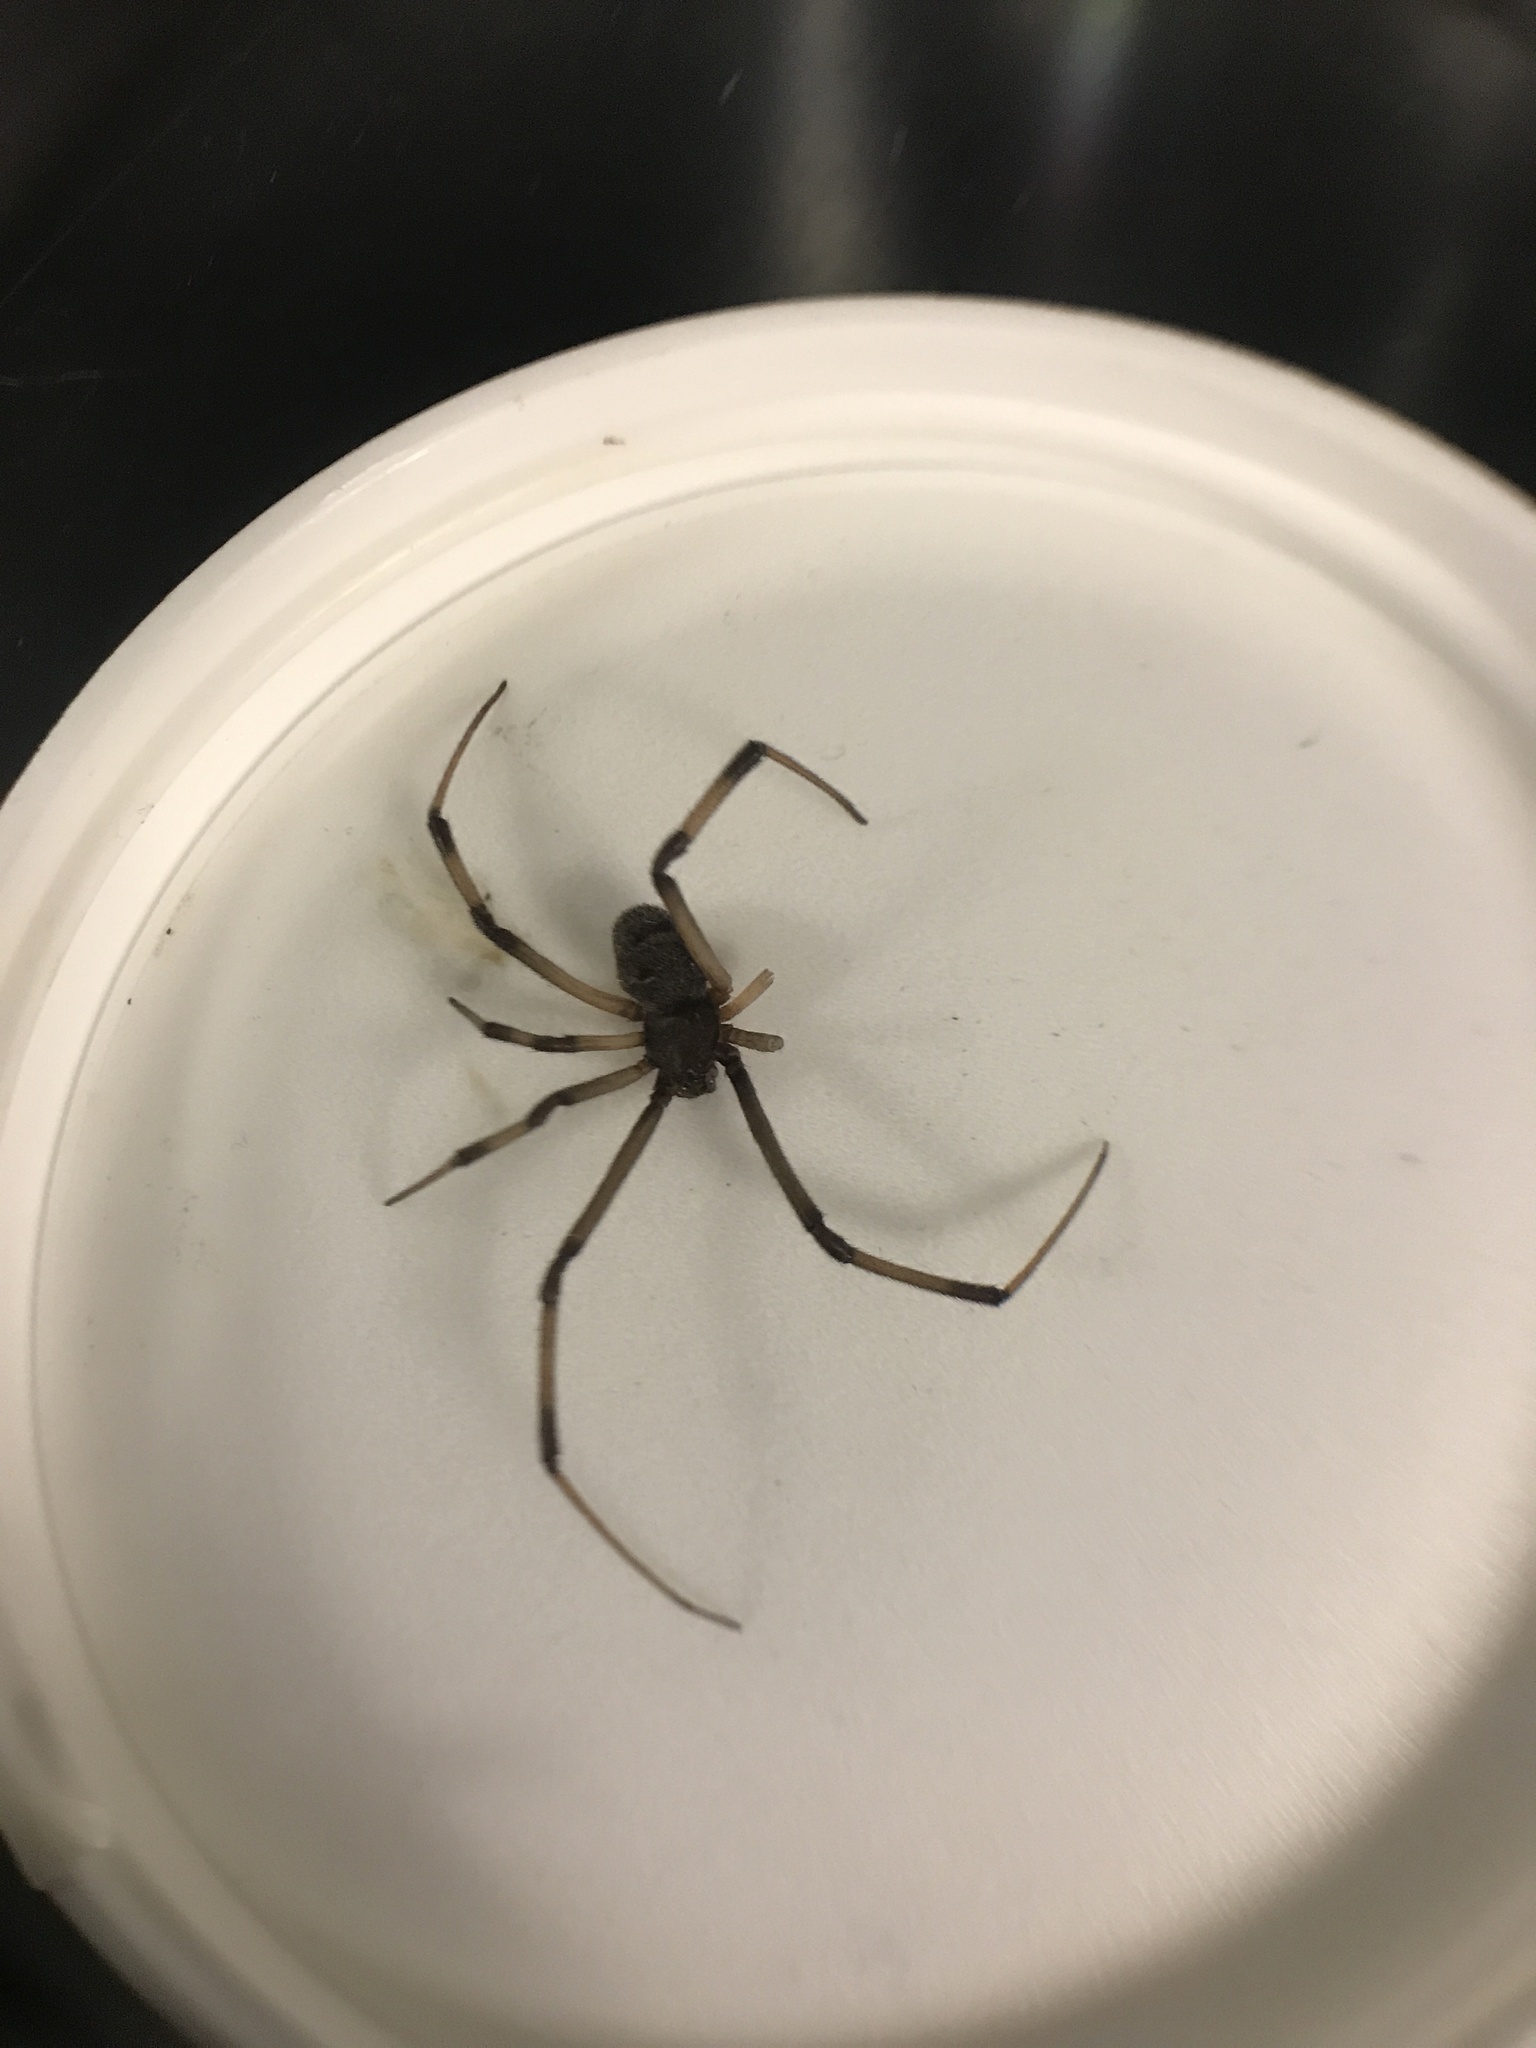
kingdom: Animalia
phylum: Arthropoda
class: Arachnida
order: Araneae
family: Theridiidae
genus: Latrodectus
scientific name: Latrodectus geometricus
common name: Brown widow spider
